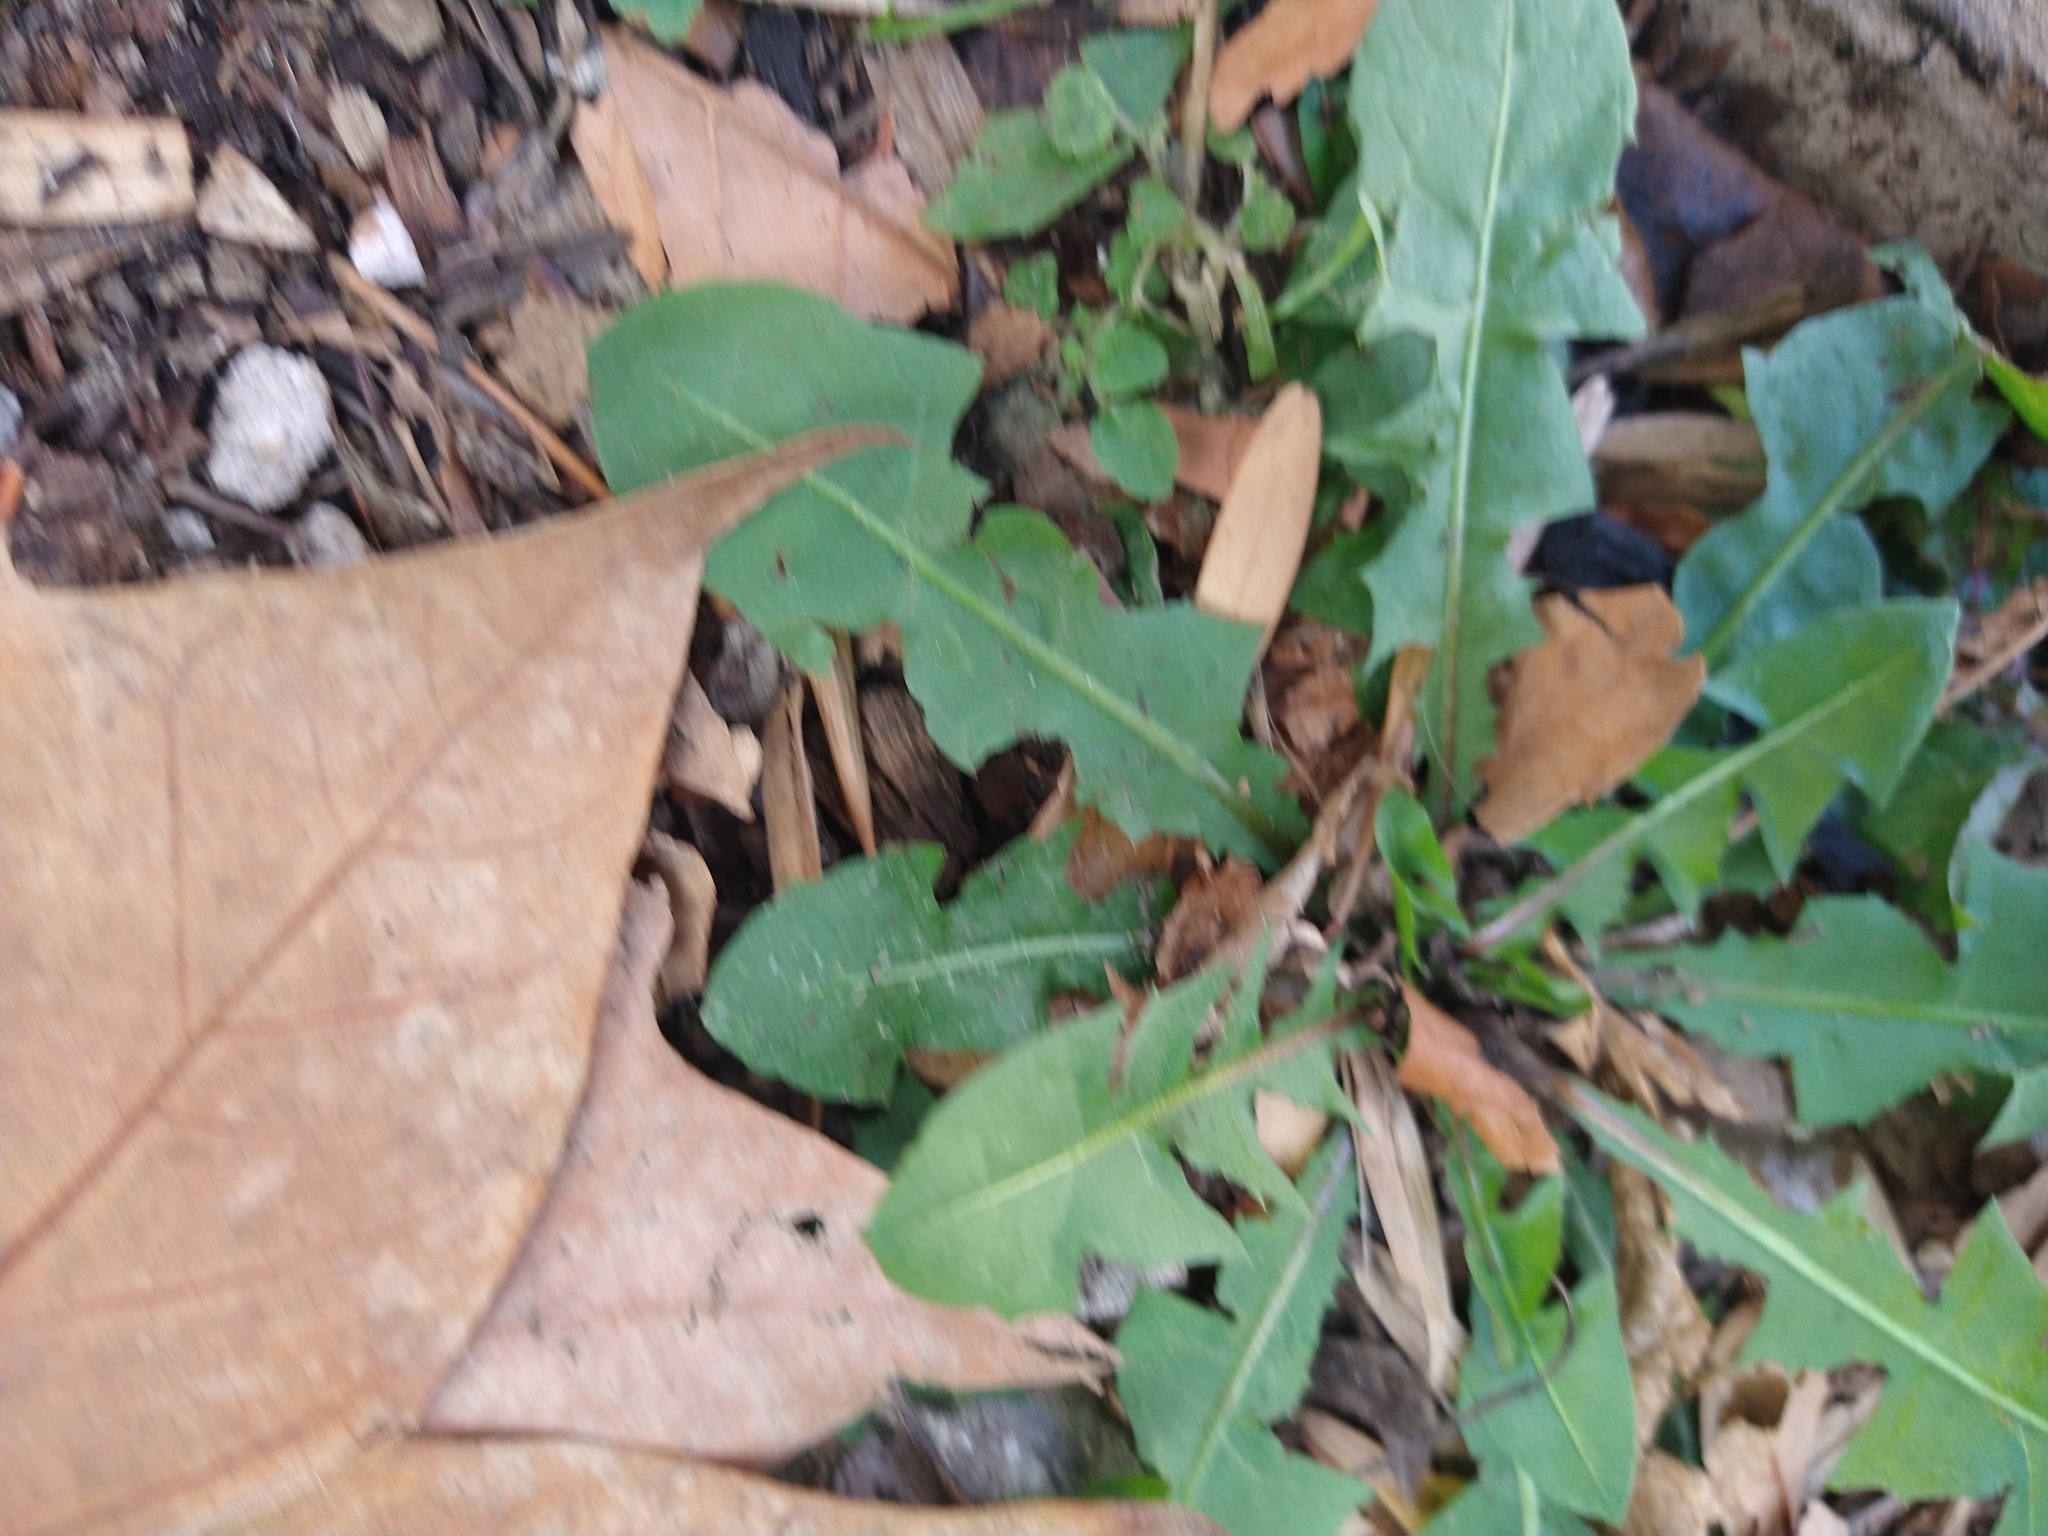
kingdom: Plantae
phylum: Tracheophyta
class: Magnoliopsida
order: Asterales
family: Asteraceae
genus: Taraxacum
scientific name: Taraxacum officinale
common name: Common dandelion
